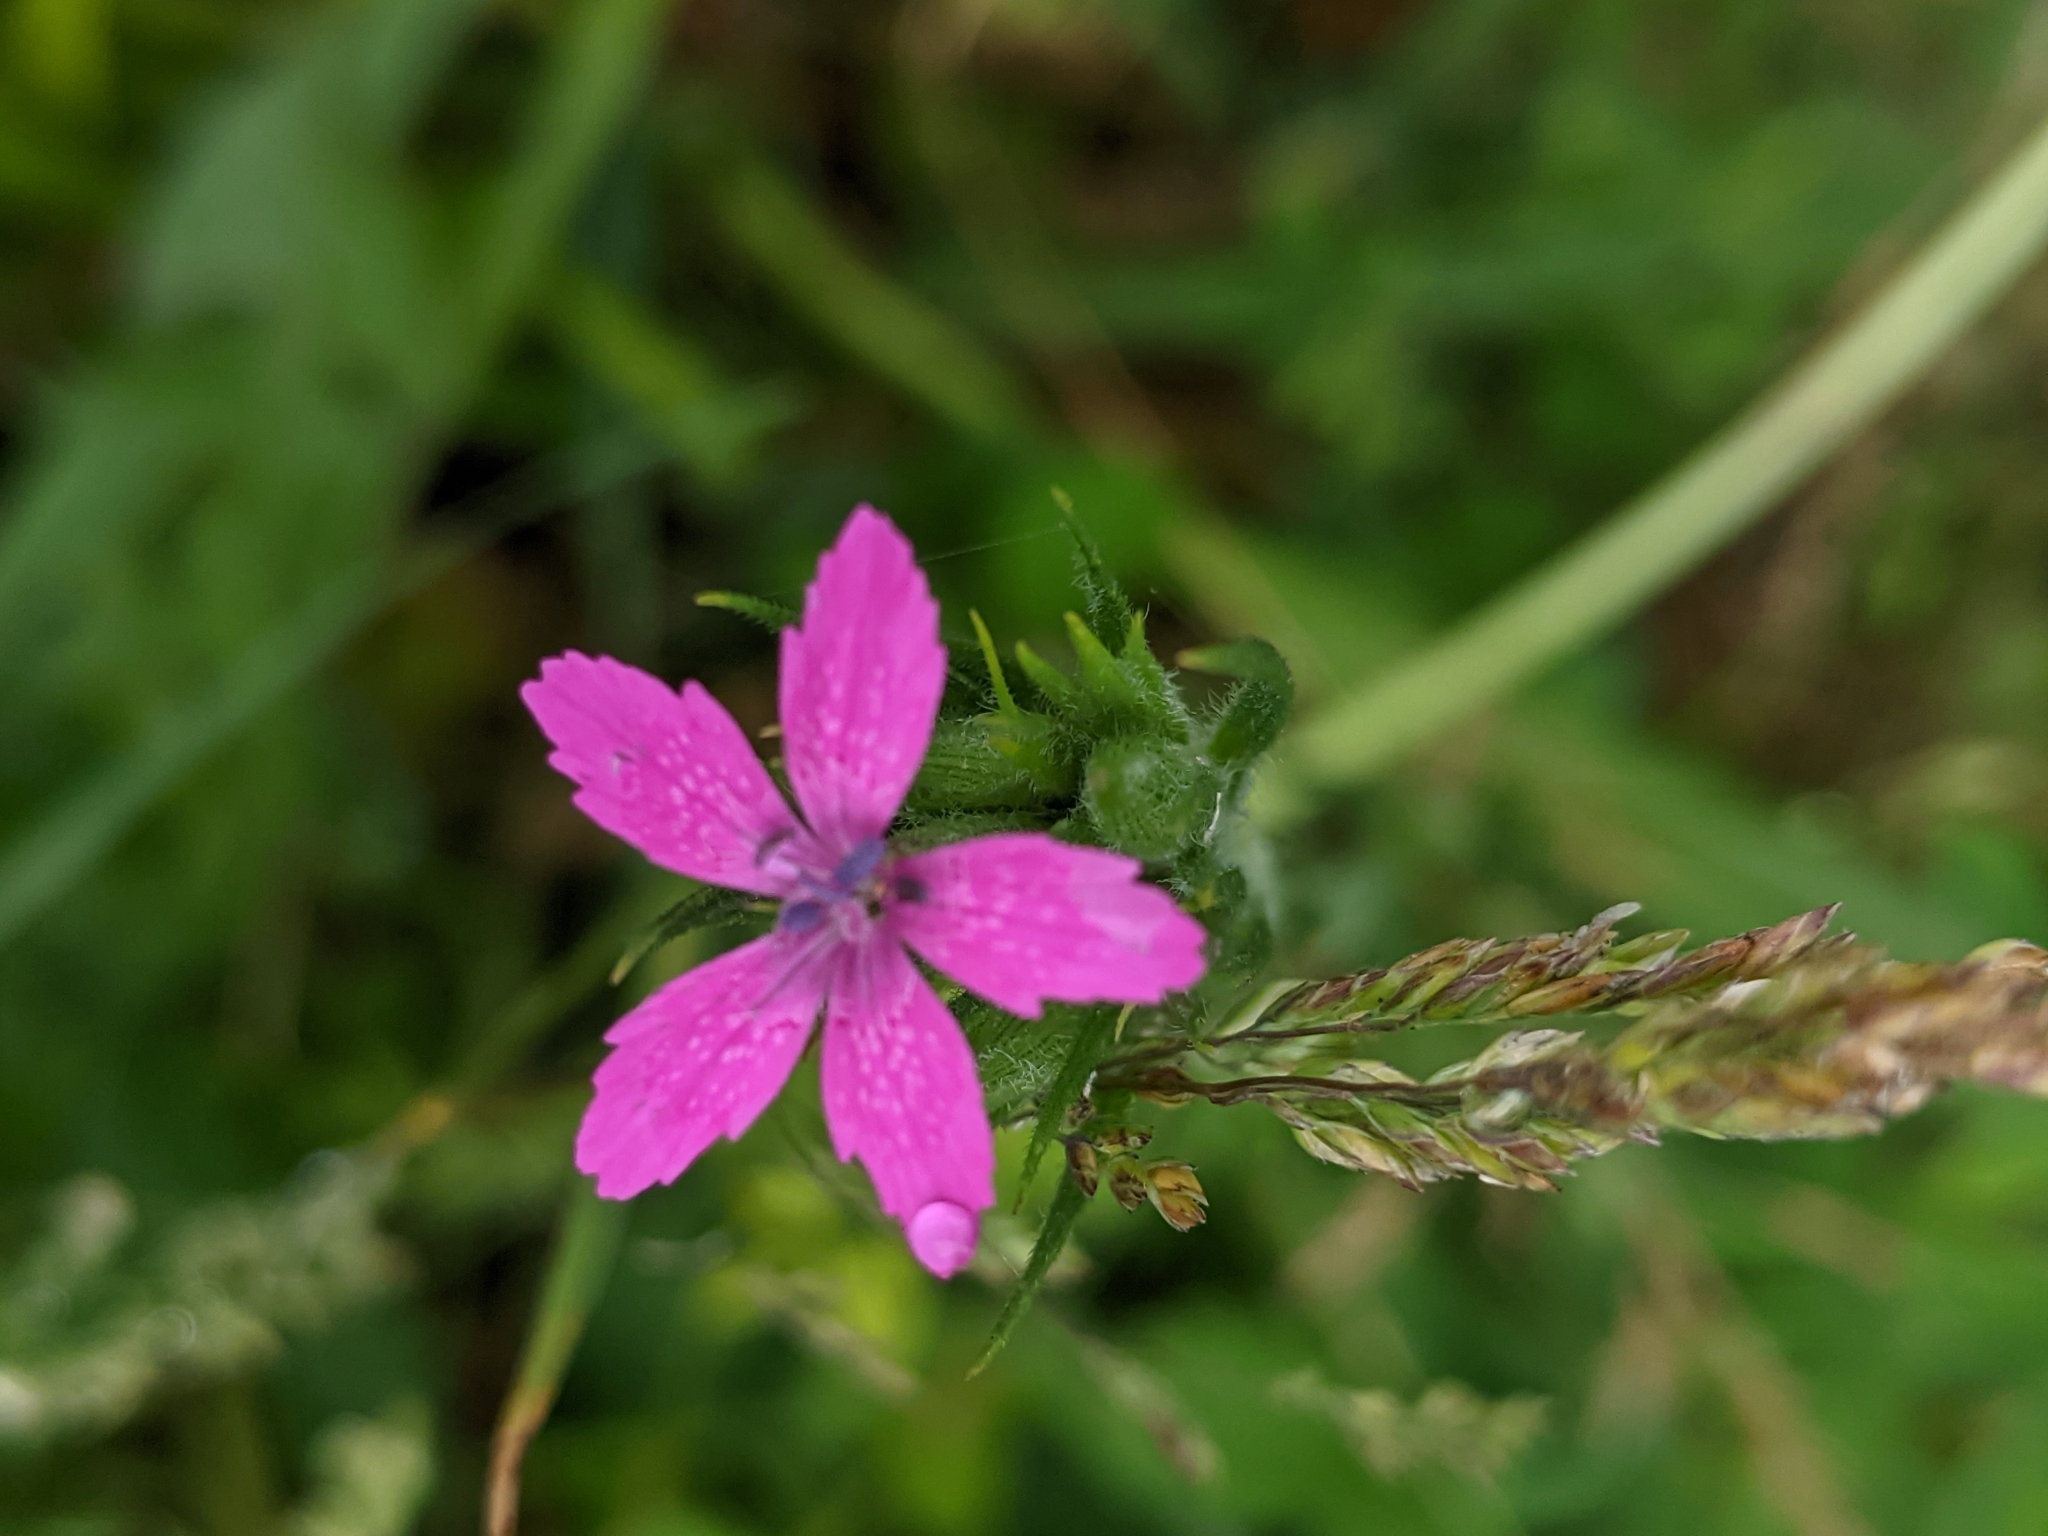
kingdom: Plantae
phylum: Tracheophyta
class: Magnoliopsida
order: Caryophyllales
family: Caryophyllaceae
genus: Dianthus
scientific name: Dianthus armeria
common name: Deptford pink
